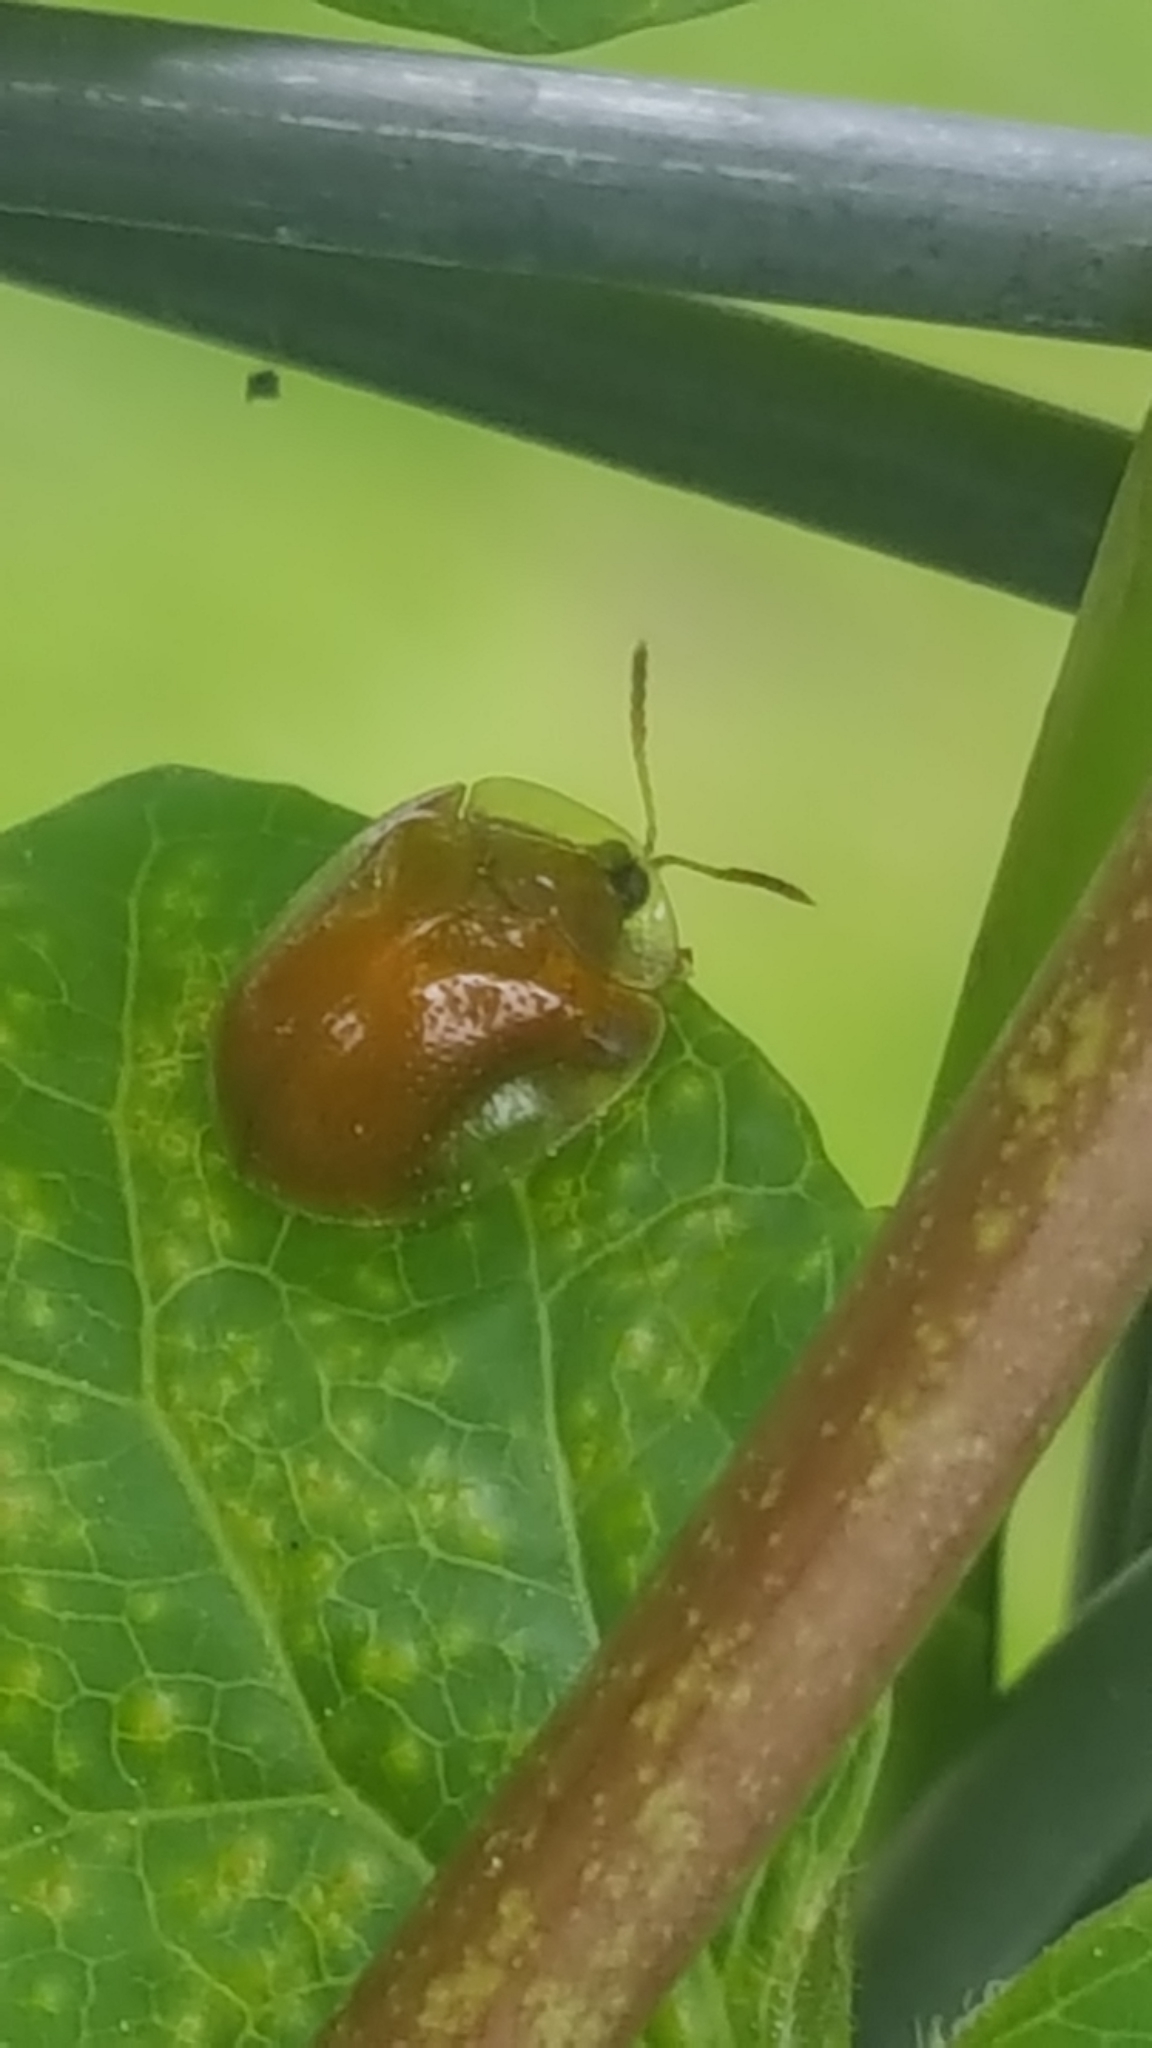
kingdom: Animalia
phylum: Arthropoda
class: Insecta
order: Coleoptera
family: Chrysomelidae
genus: Charidotella
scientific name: Charidotella purpurata
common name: Small orange tortoise beetle
